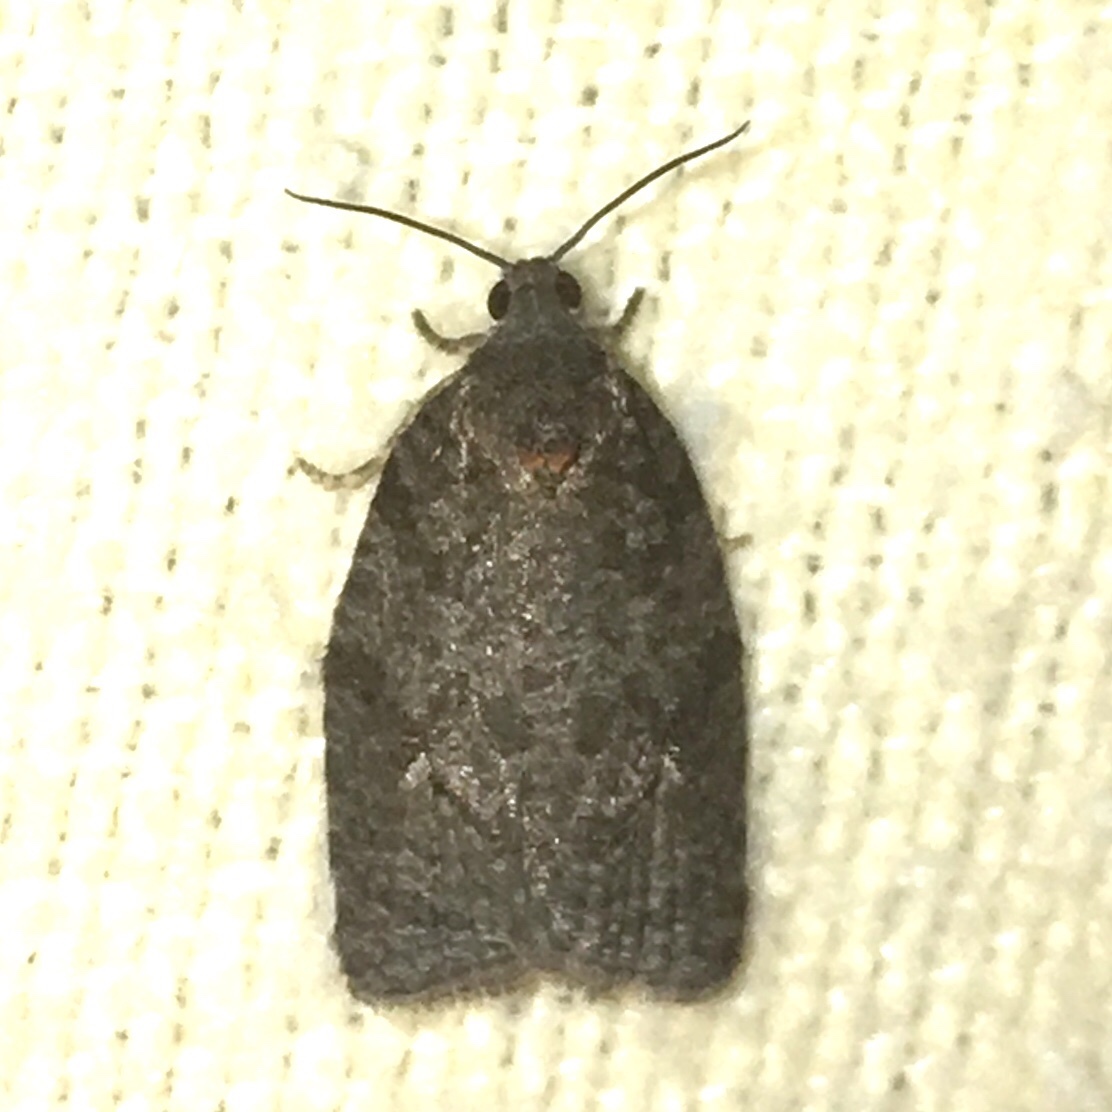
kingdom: Animalia
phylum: Arthropoda
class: Insecta
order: Lepidoptera
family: Tortricidae
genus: Apotomis
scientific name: Apotomis removana
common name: Green aspen leafroller
